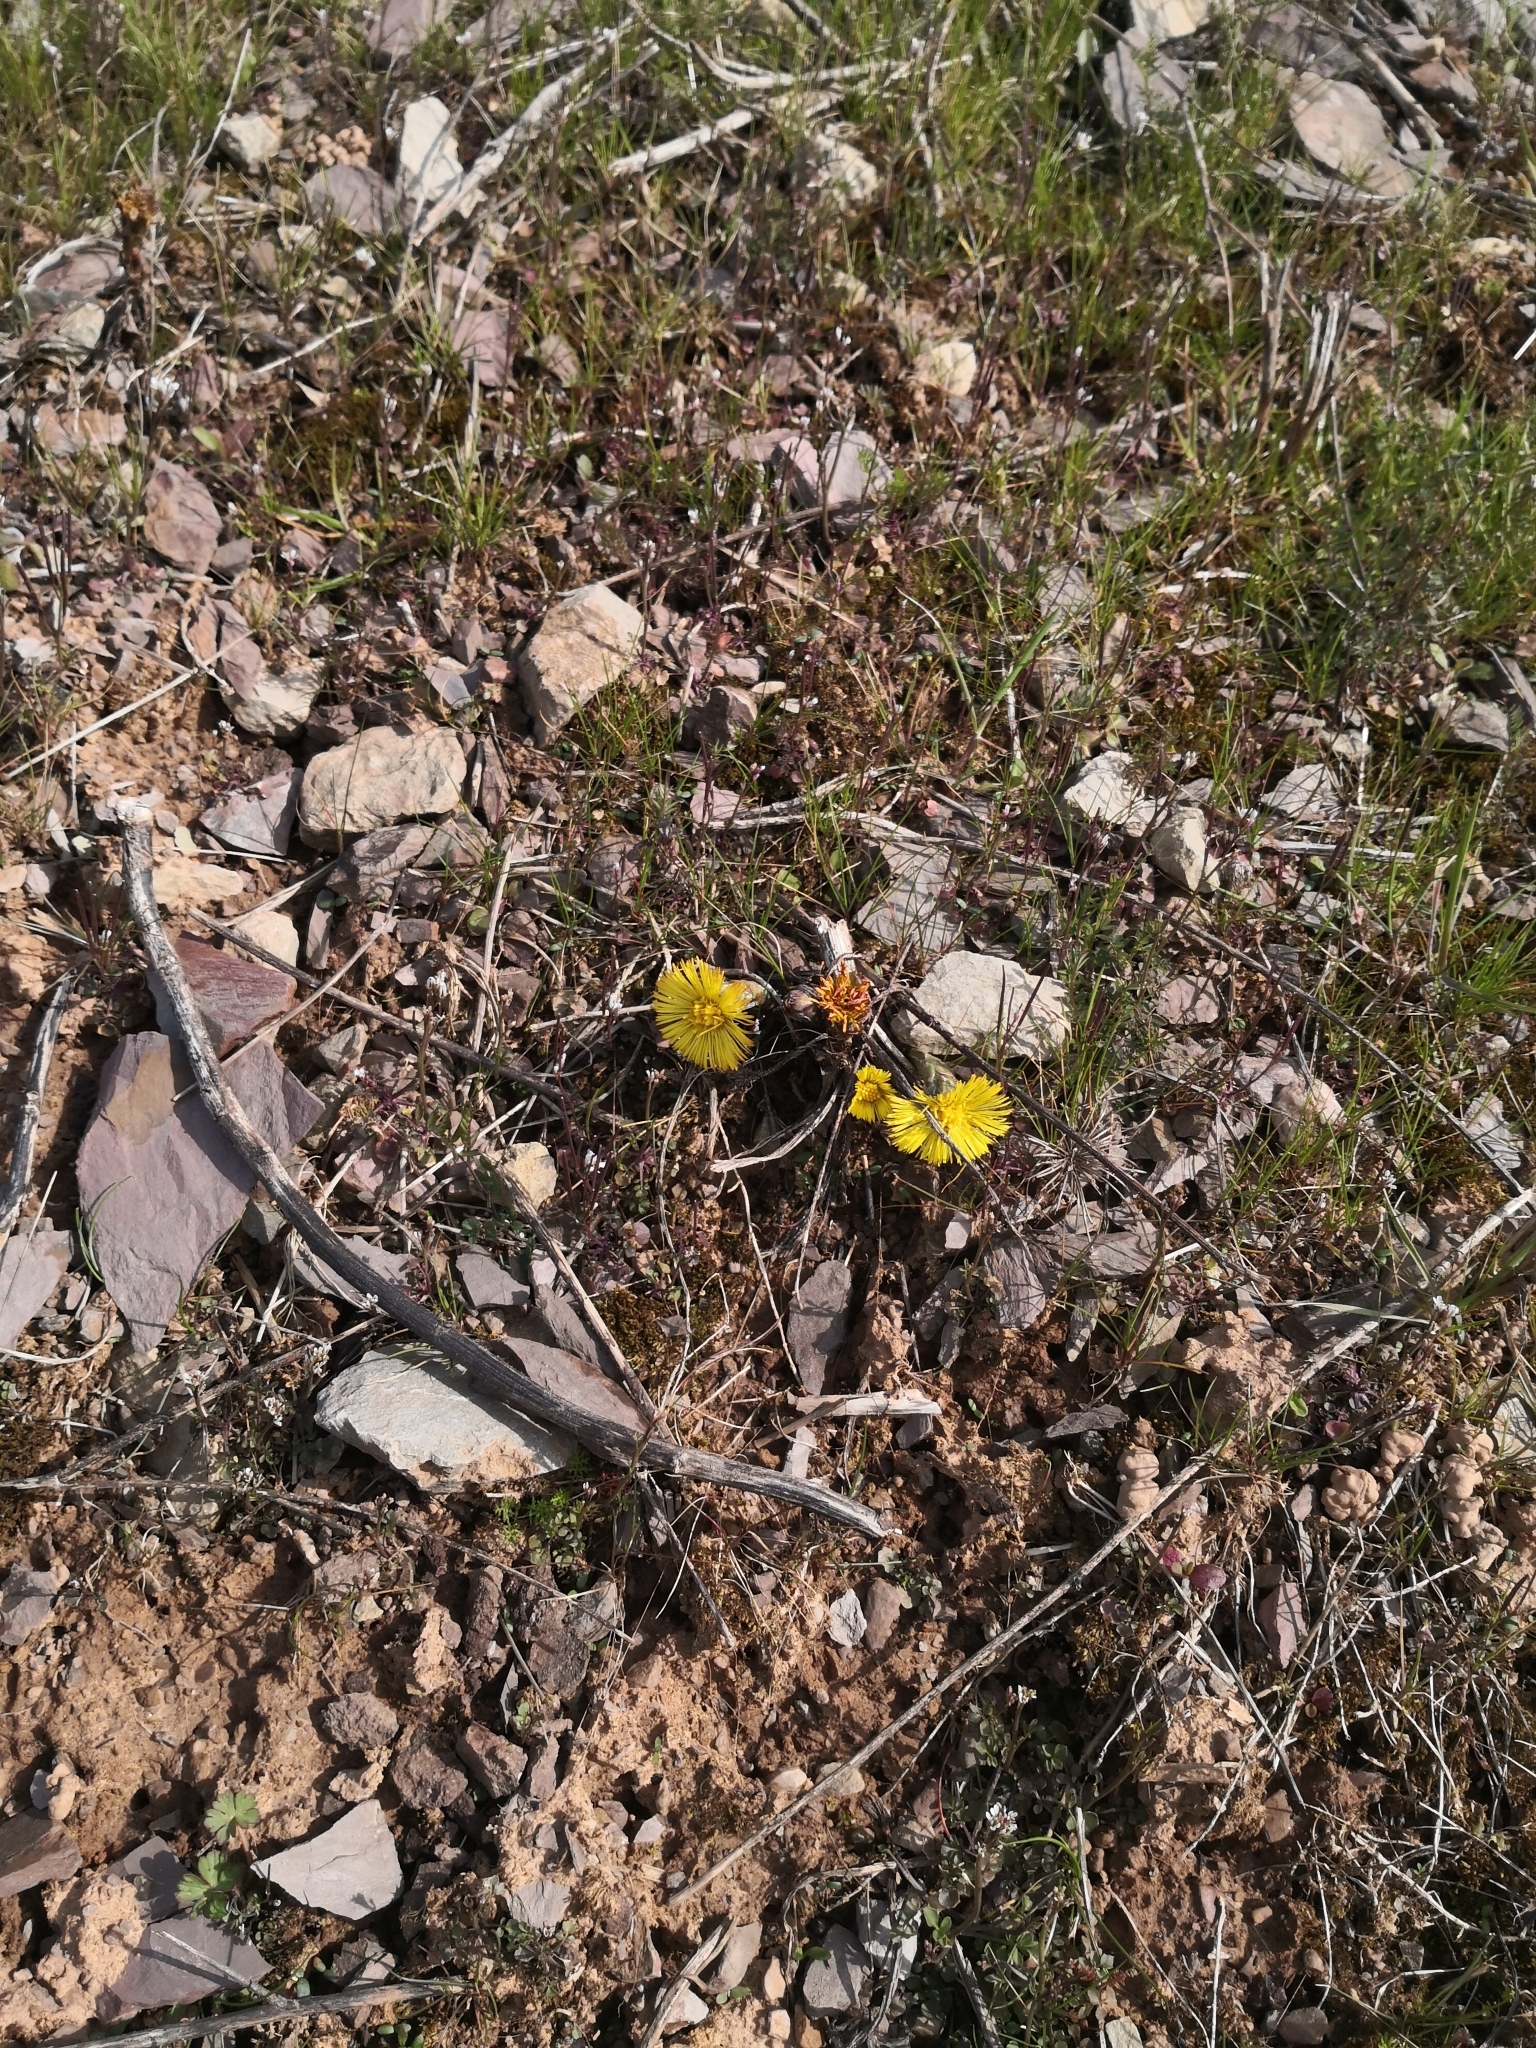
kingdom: Plantae
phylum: Tracheophyta
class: Magnoliopsida
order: Asterales
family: Asteraceae
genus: Tussilago
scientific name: Tussilago farfara
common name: Coltsfoot
